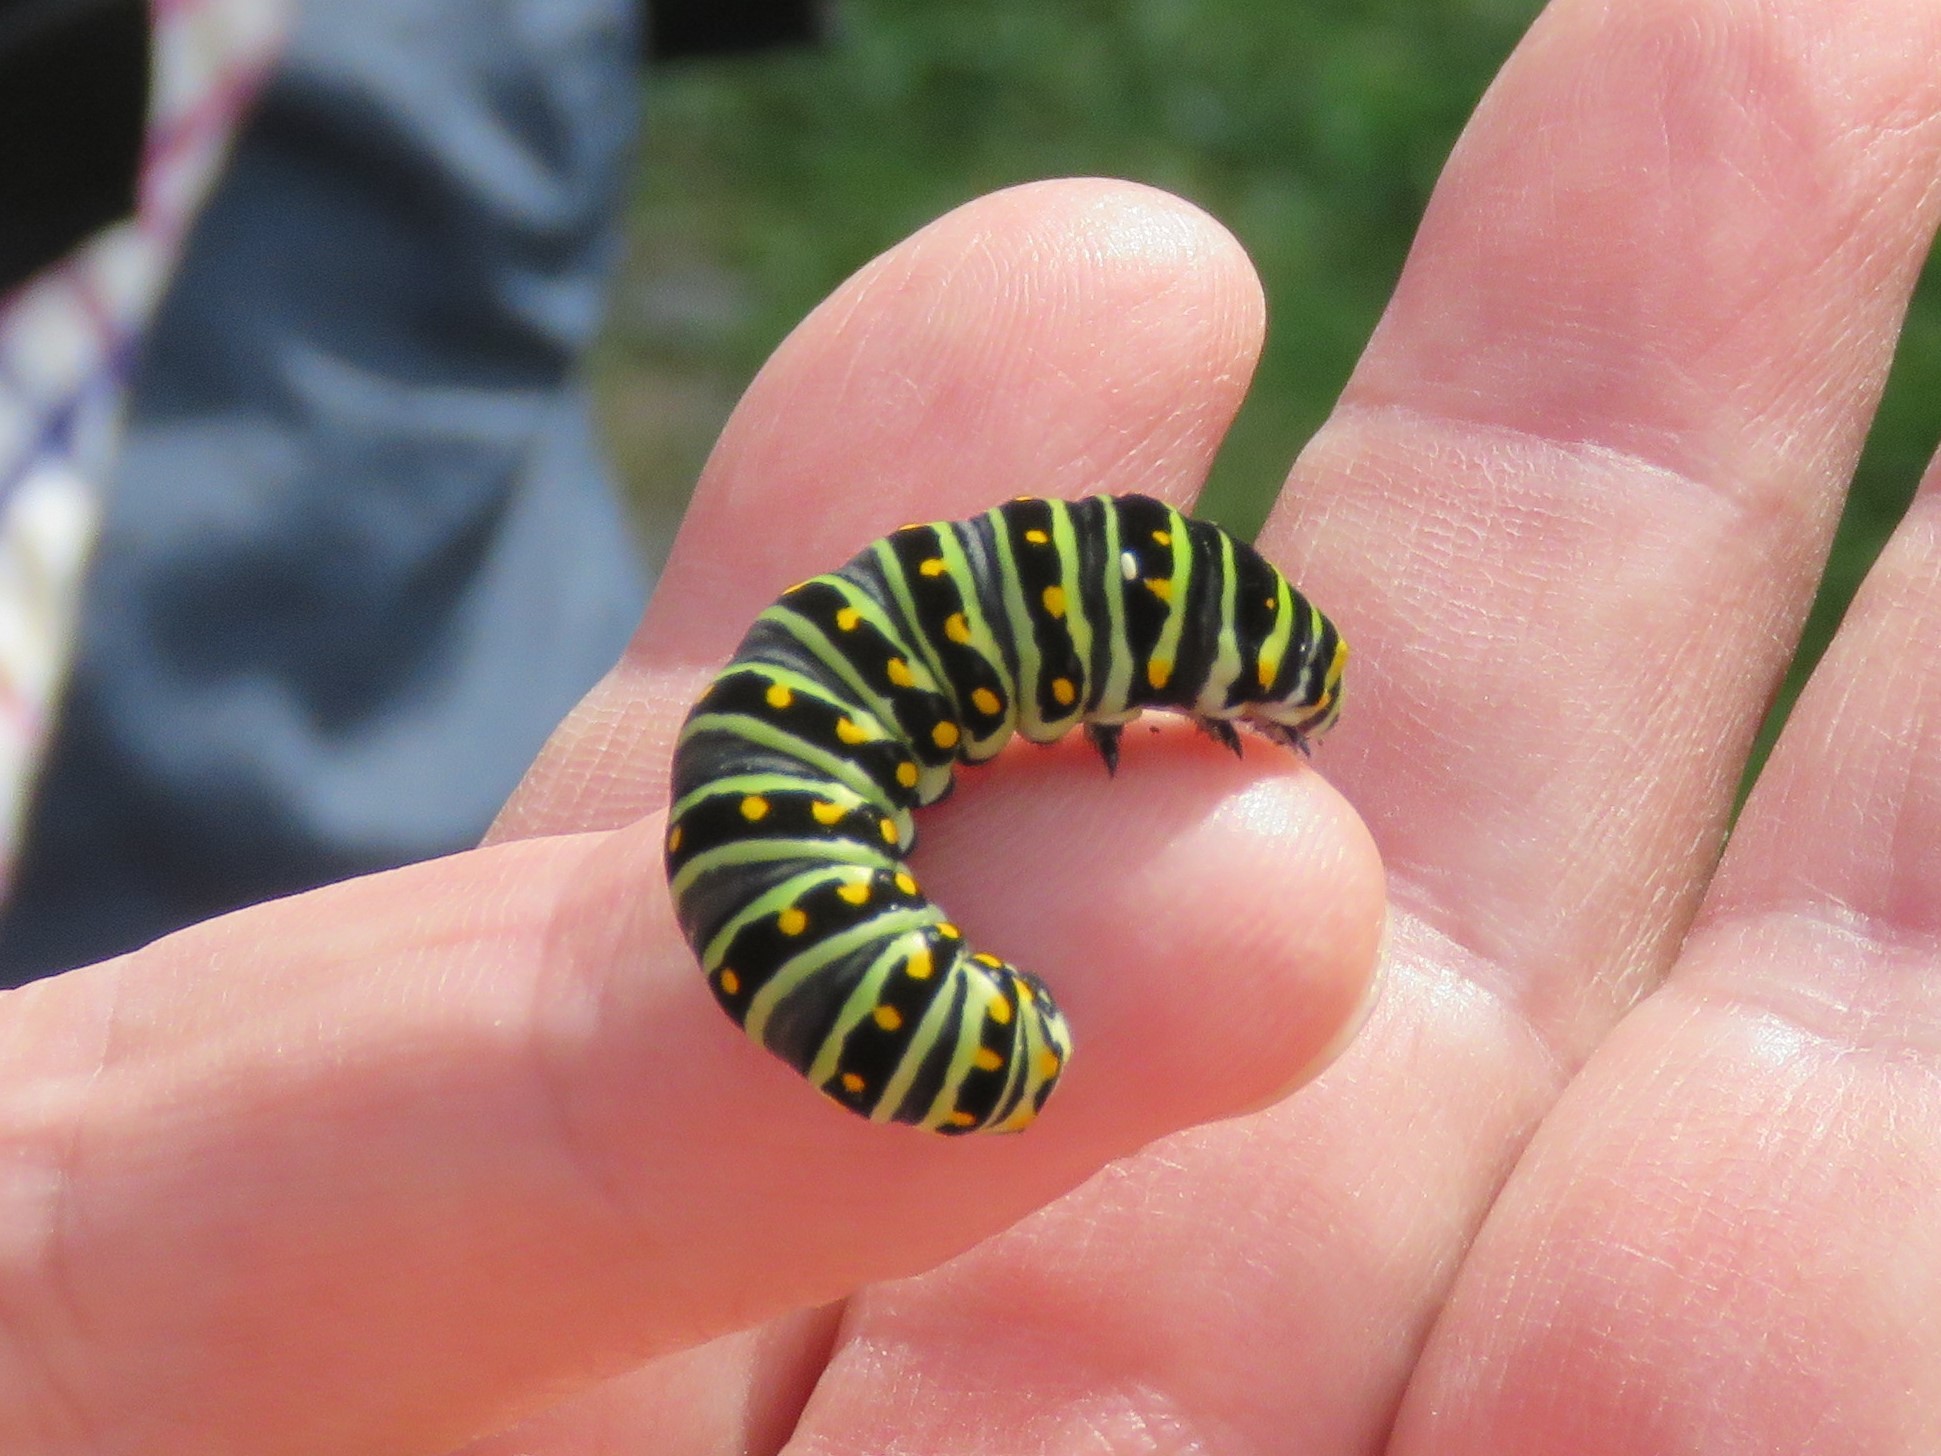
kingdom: Animalia
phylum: Arthropoda
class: Insecta
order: Lepidoptera
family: Papilionidae
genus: Papilio
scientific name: Papilio polyxenes
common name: Black swallowtail
